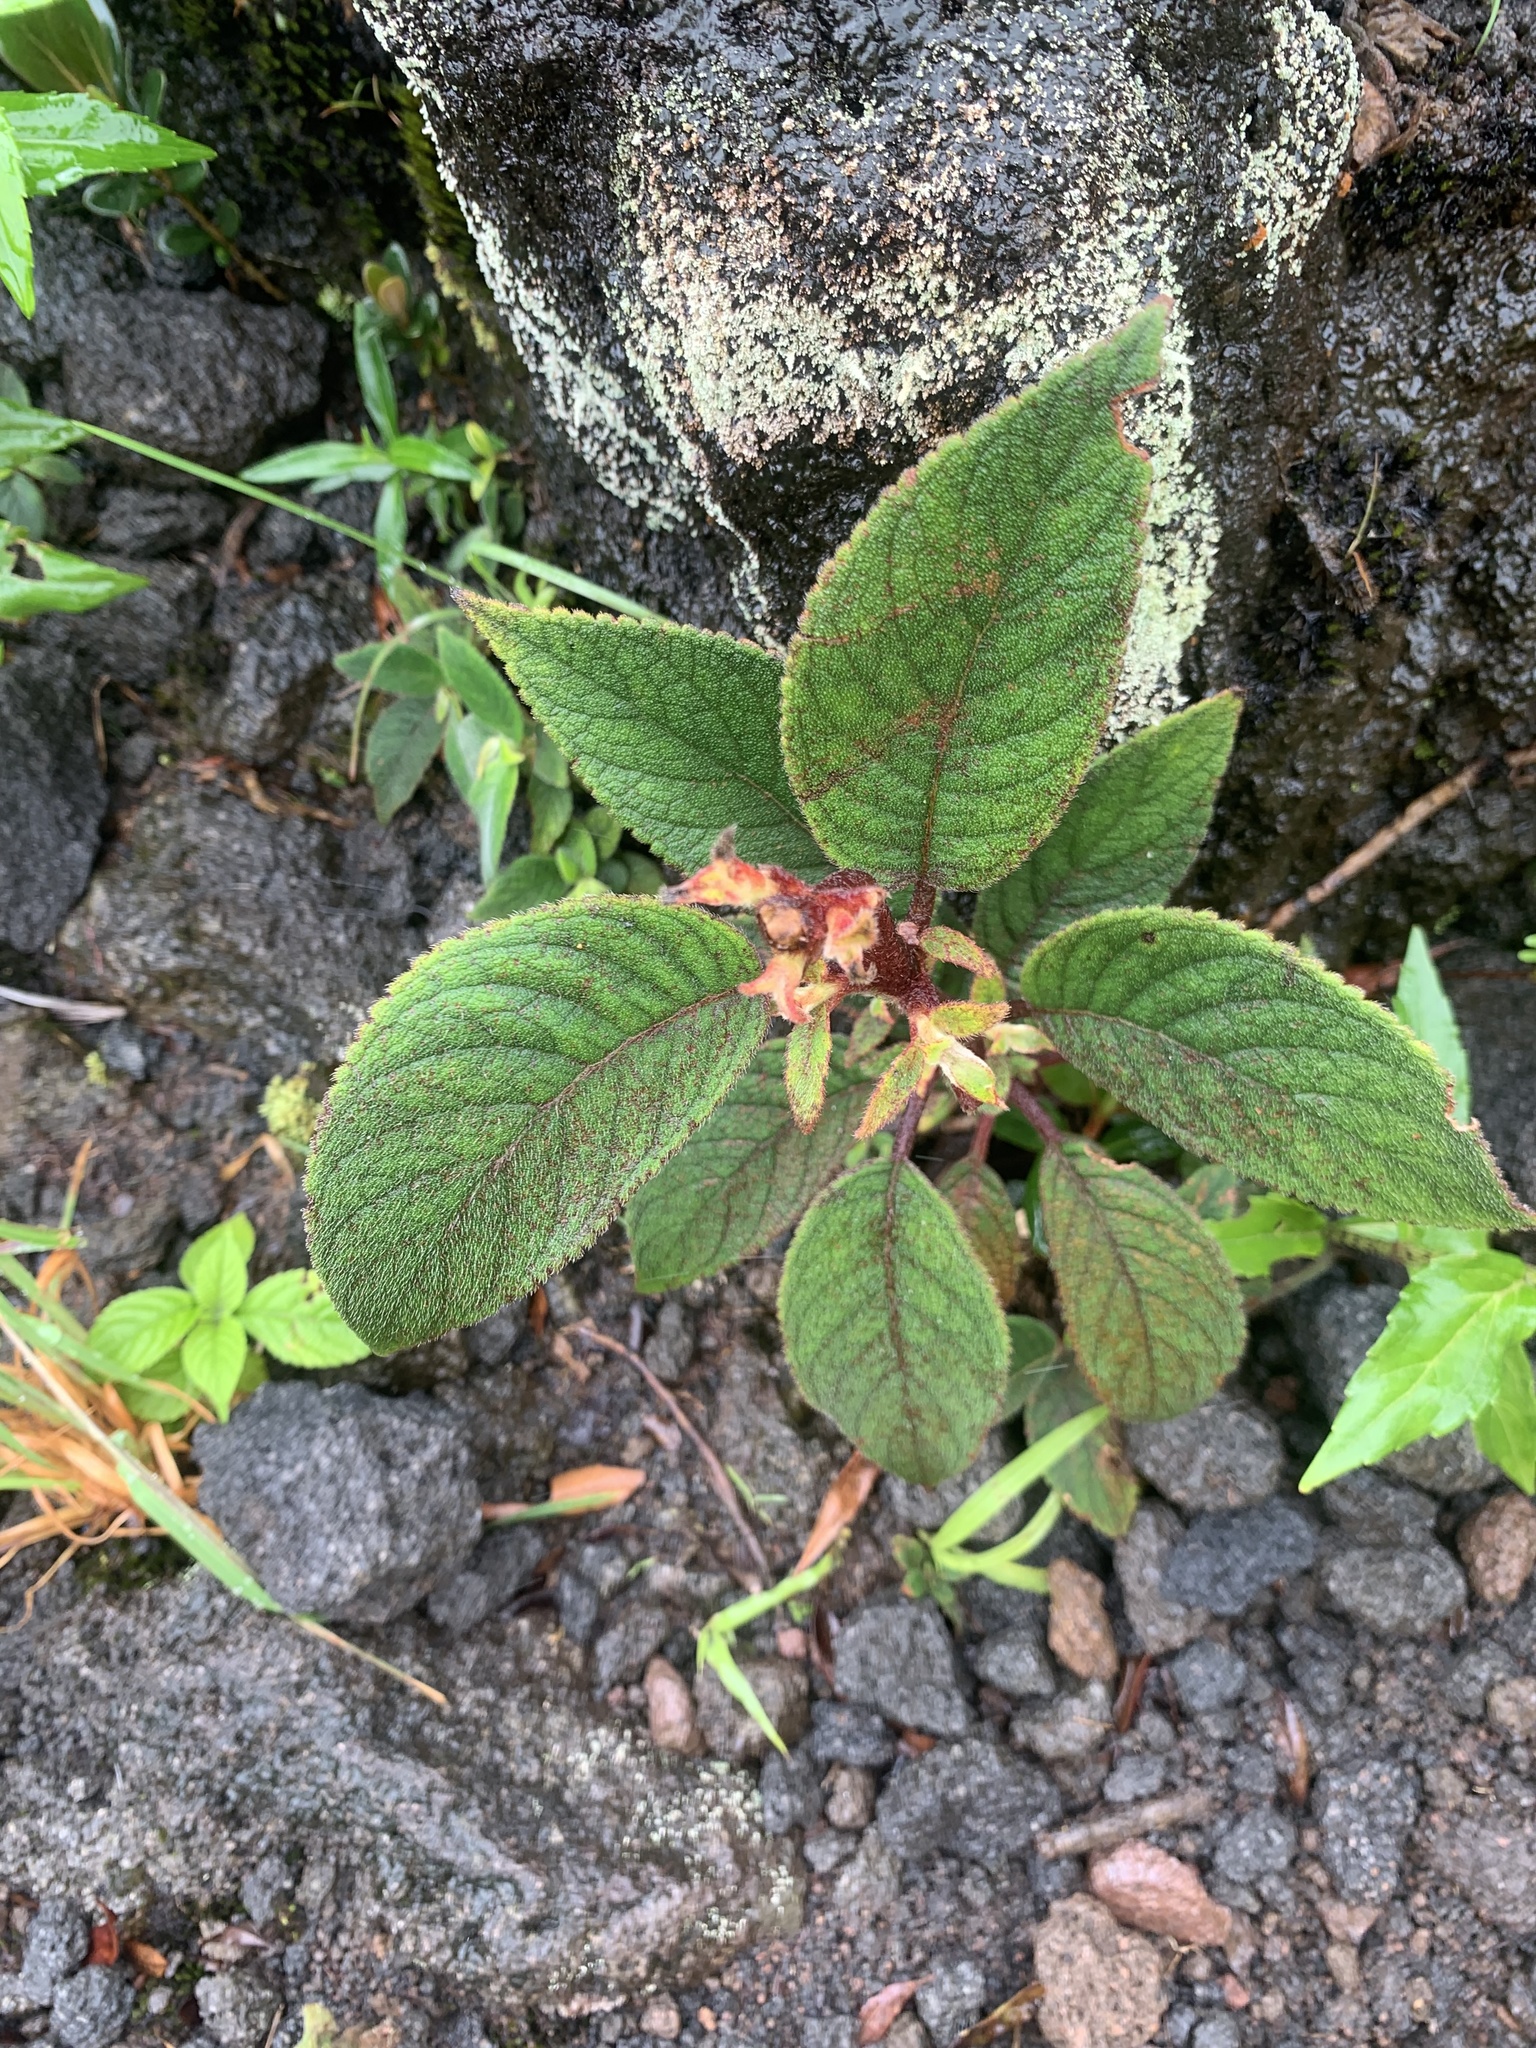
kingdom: Plantae
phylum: Tracheophyta
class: Magnoliopsida
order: Lamiales
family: Gesneriaceae
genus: Moussonia
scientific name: Moussonia strigosa
